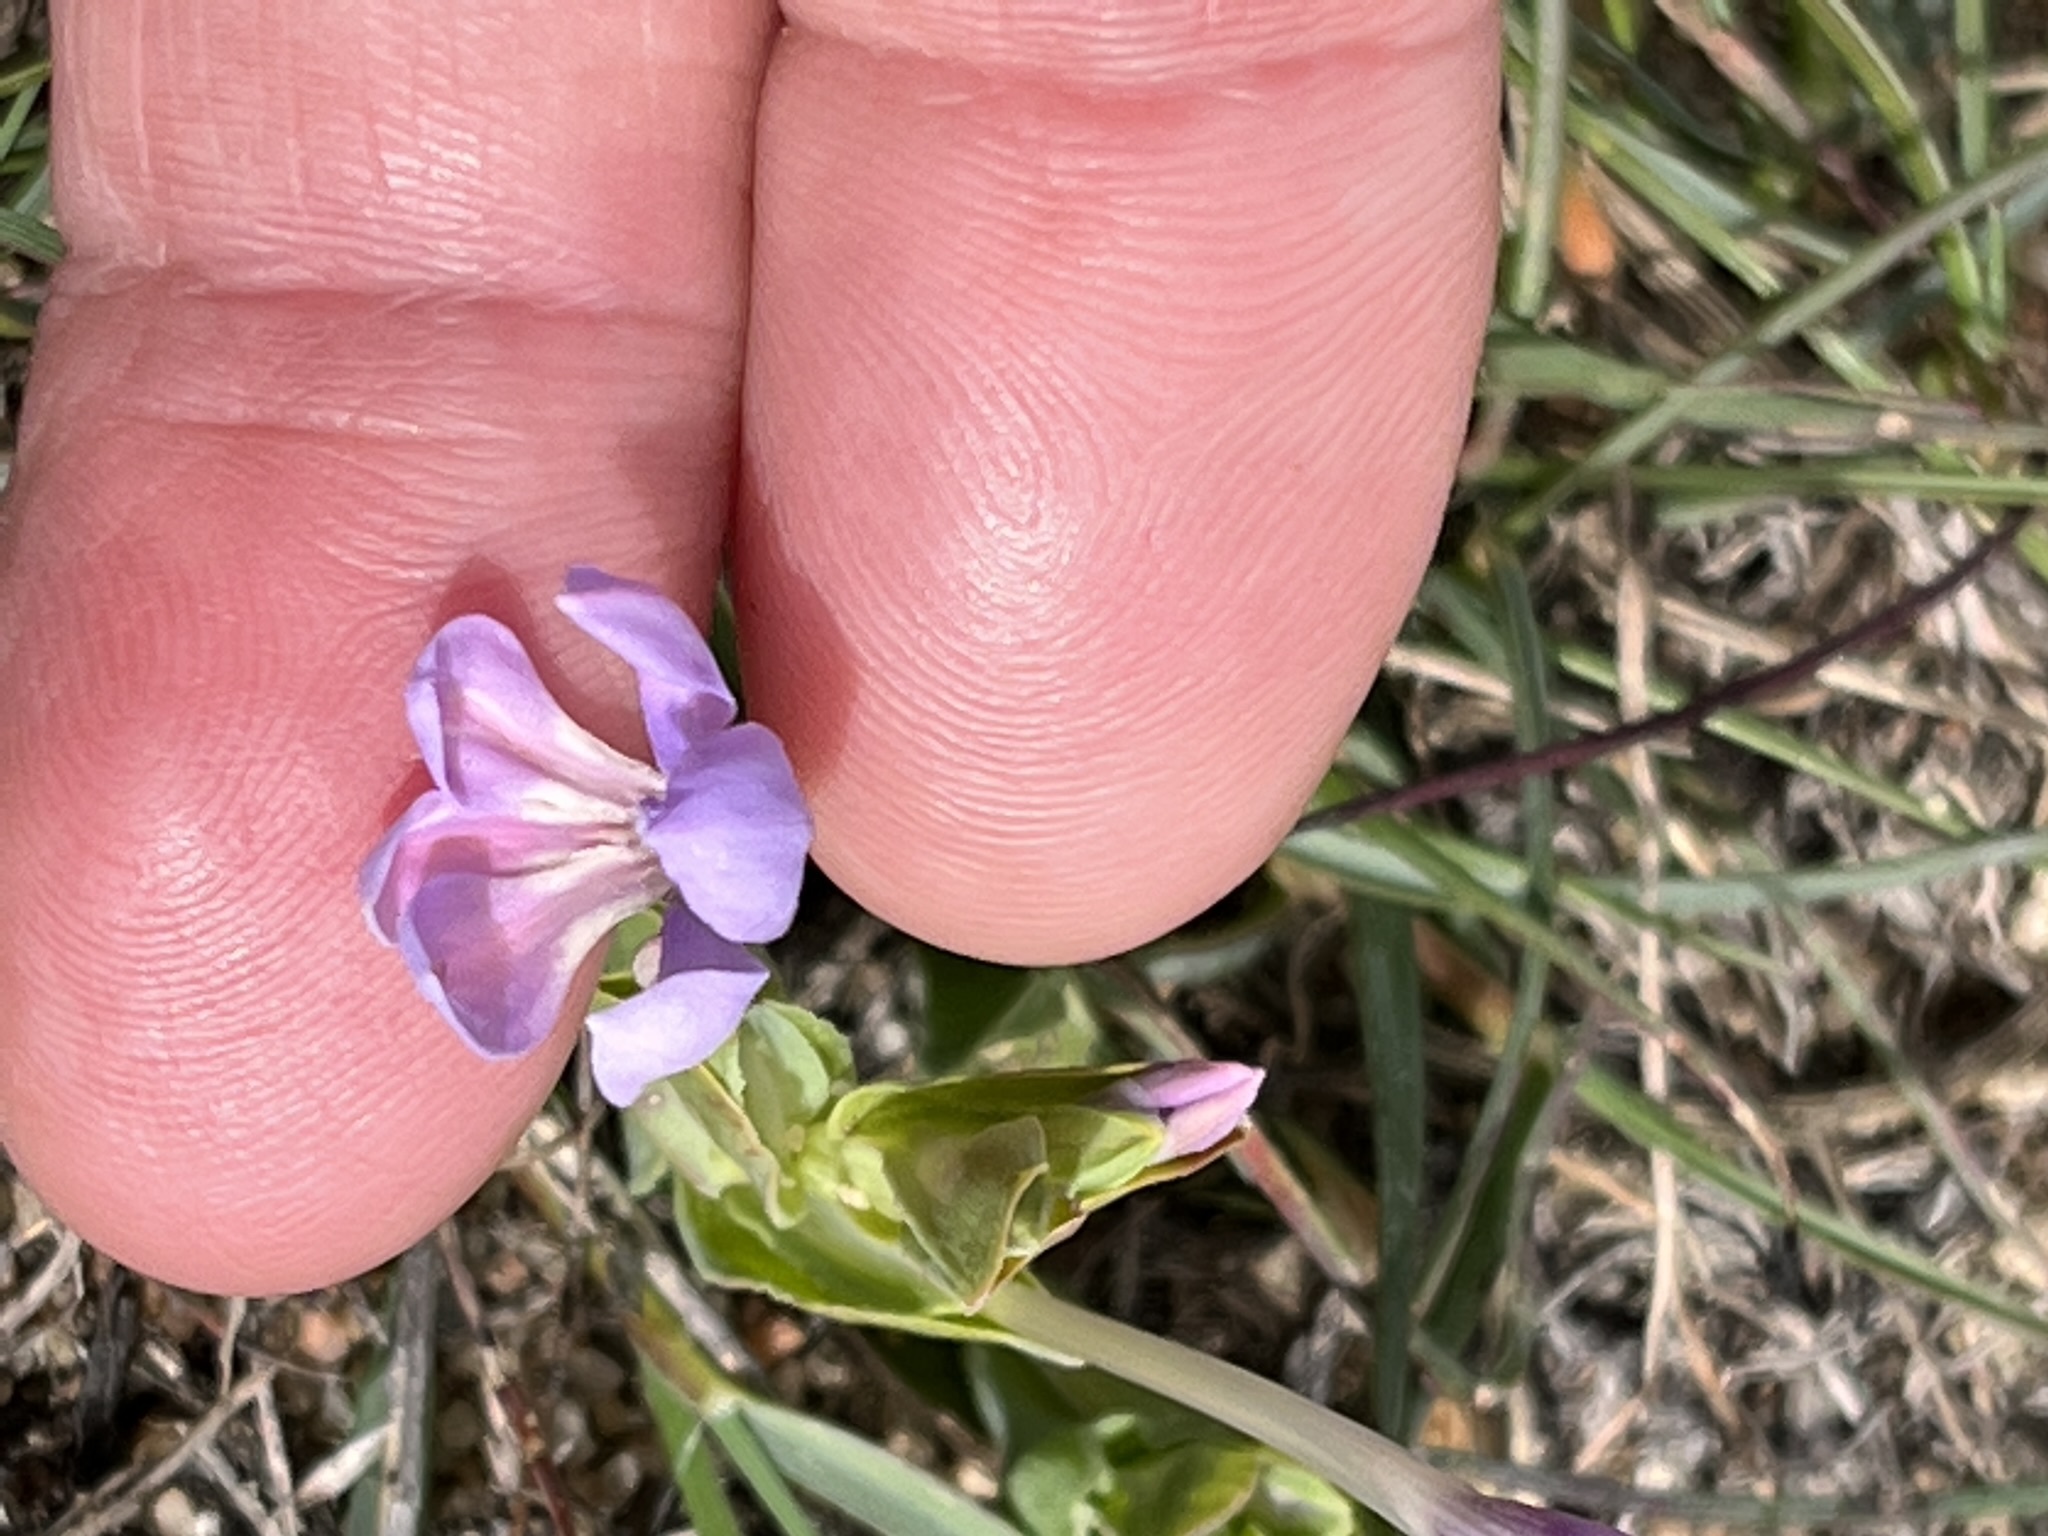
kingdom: Plantae
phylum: Tracheophyta
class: Liliopsida
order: Asparagales
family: Iridaceae
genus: Lapeirousia
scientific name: Lapeirousia jacquinii
